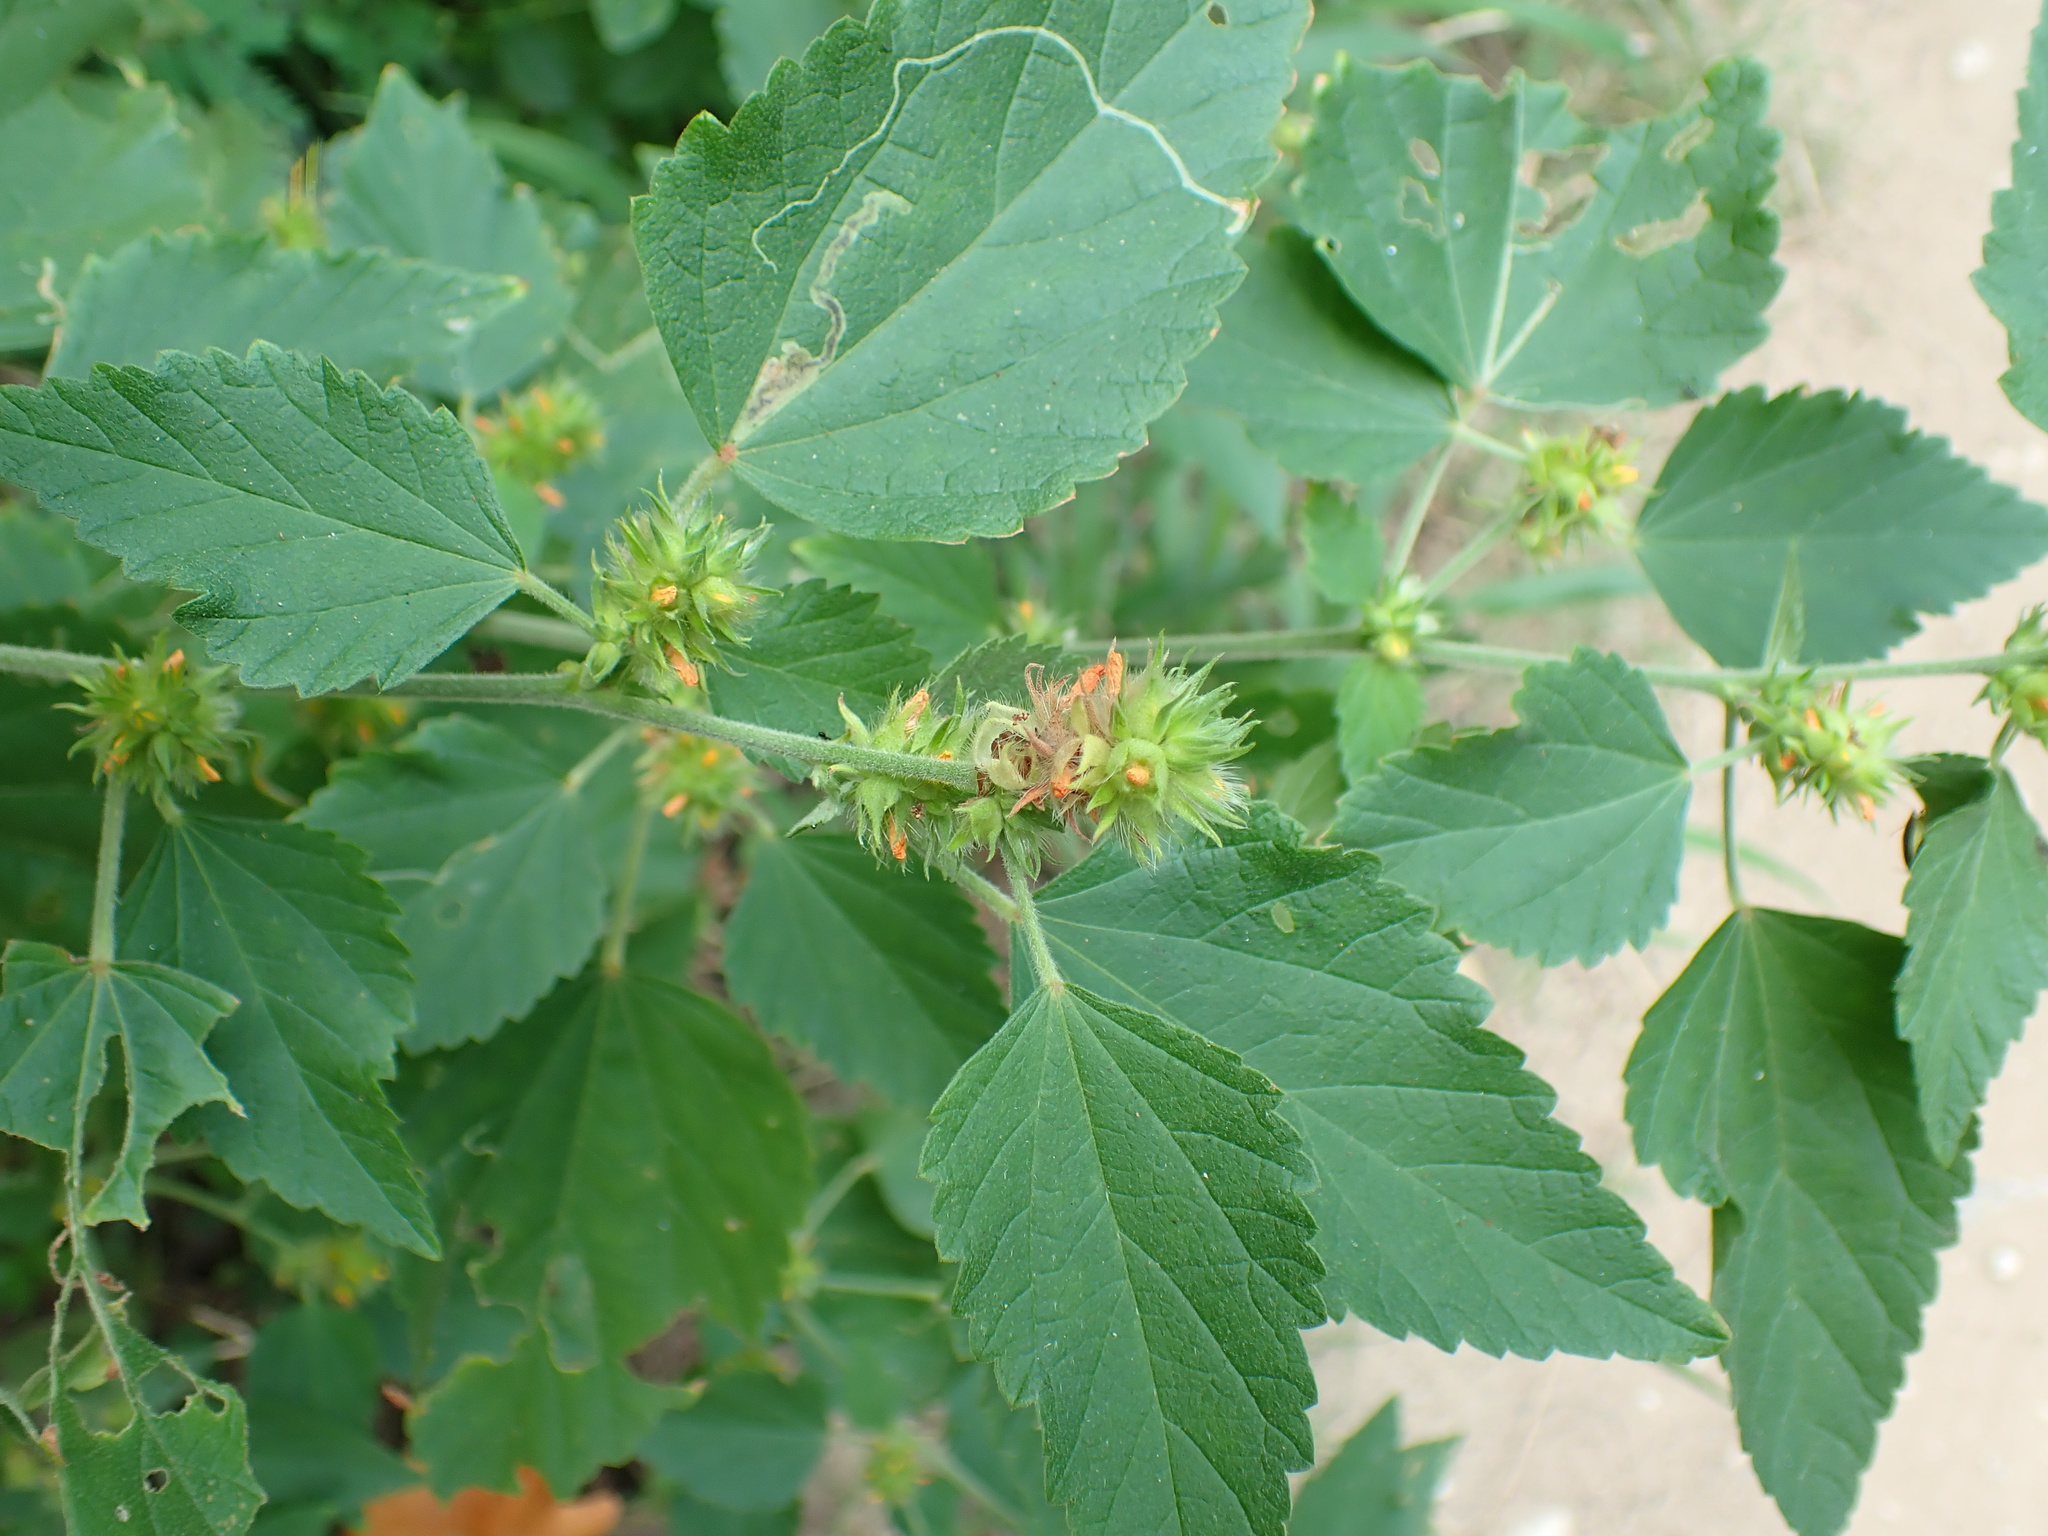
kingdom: Plantae
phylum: Tracheophyta
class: Magnoliopsida
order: Malvales
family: Malvaceae
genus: Malvastrum
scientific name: Malvastrum americanum
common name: Spiked malvastrum
